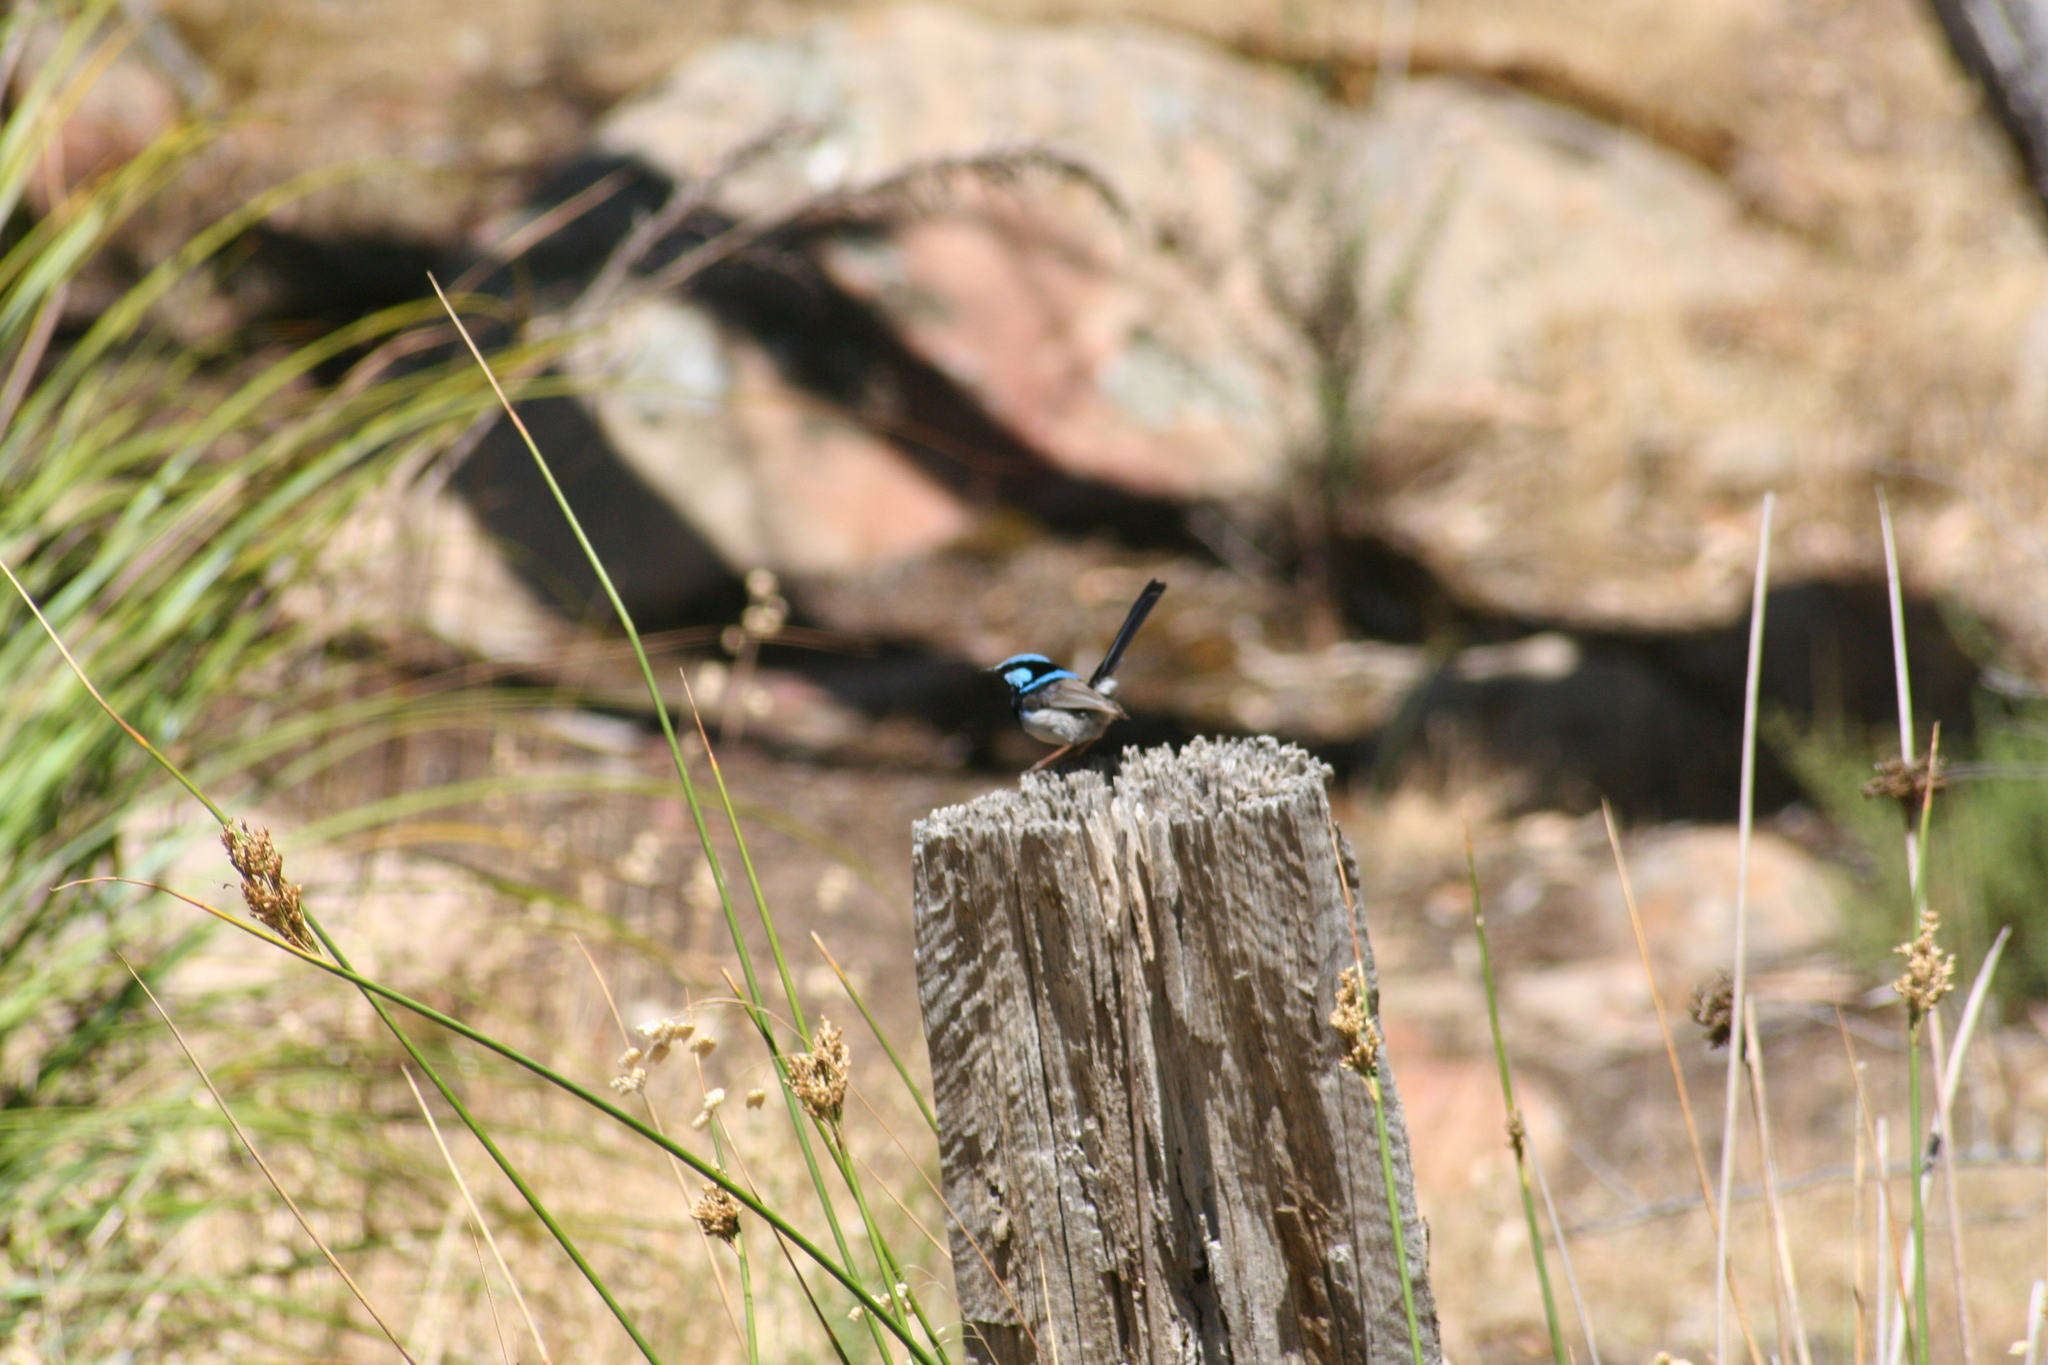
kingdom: Animalia
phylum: Chordata
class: Aves
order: Passeriformes
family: Maluridae
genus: Malurus
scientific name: Malurus cyaneus
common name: Superb fairywren
